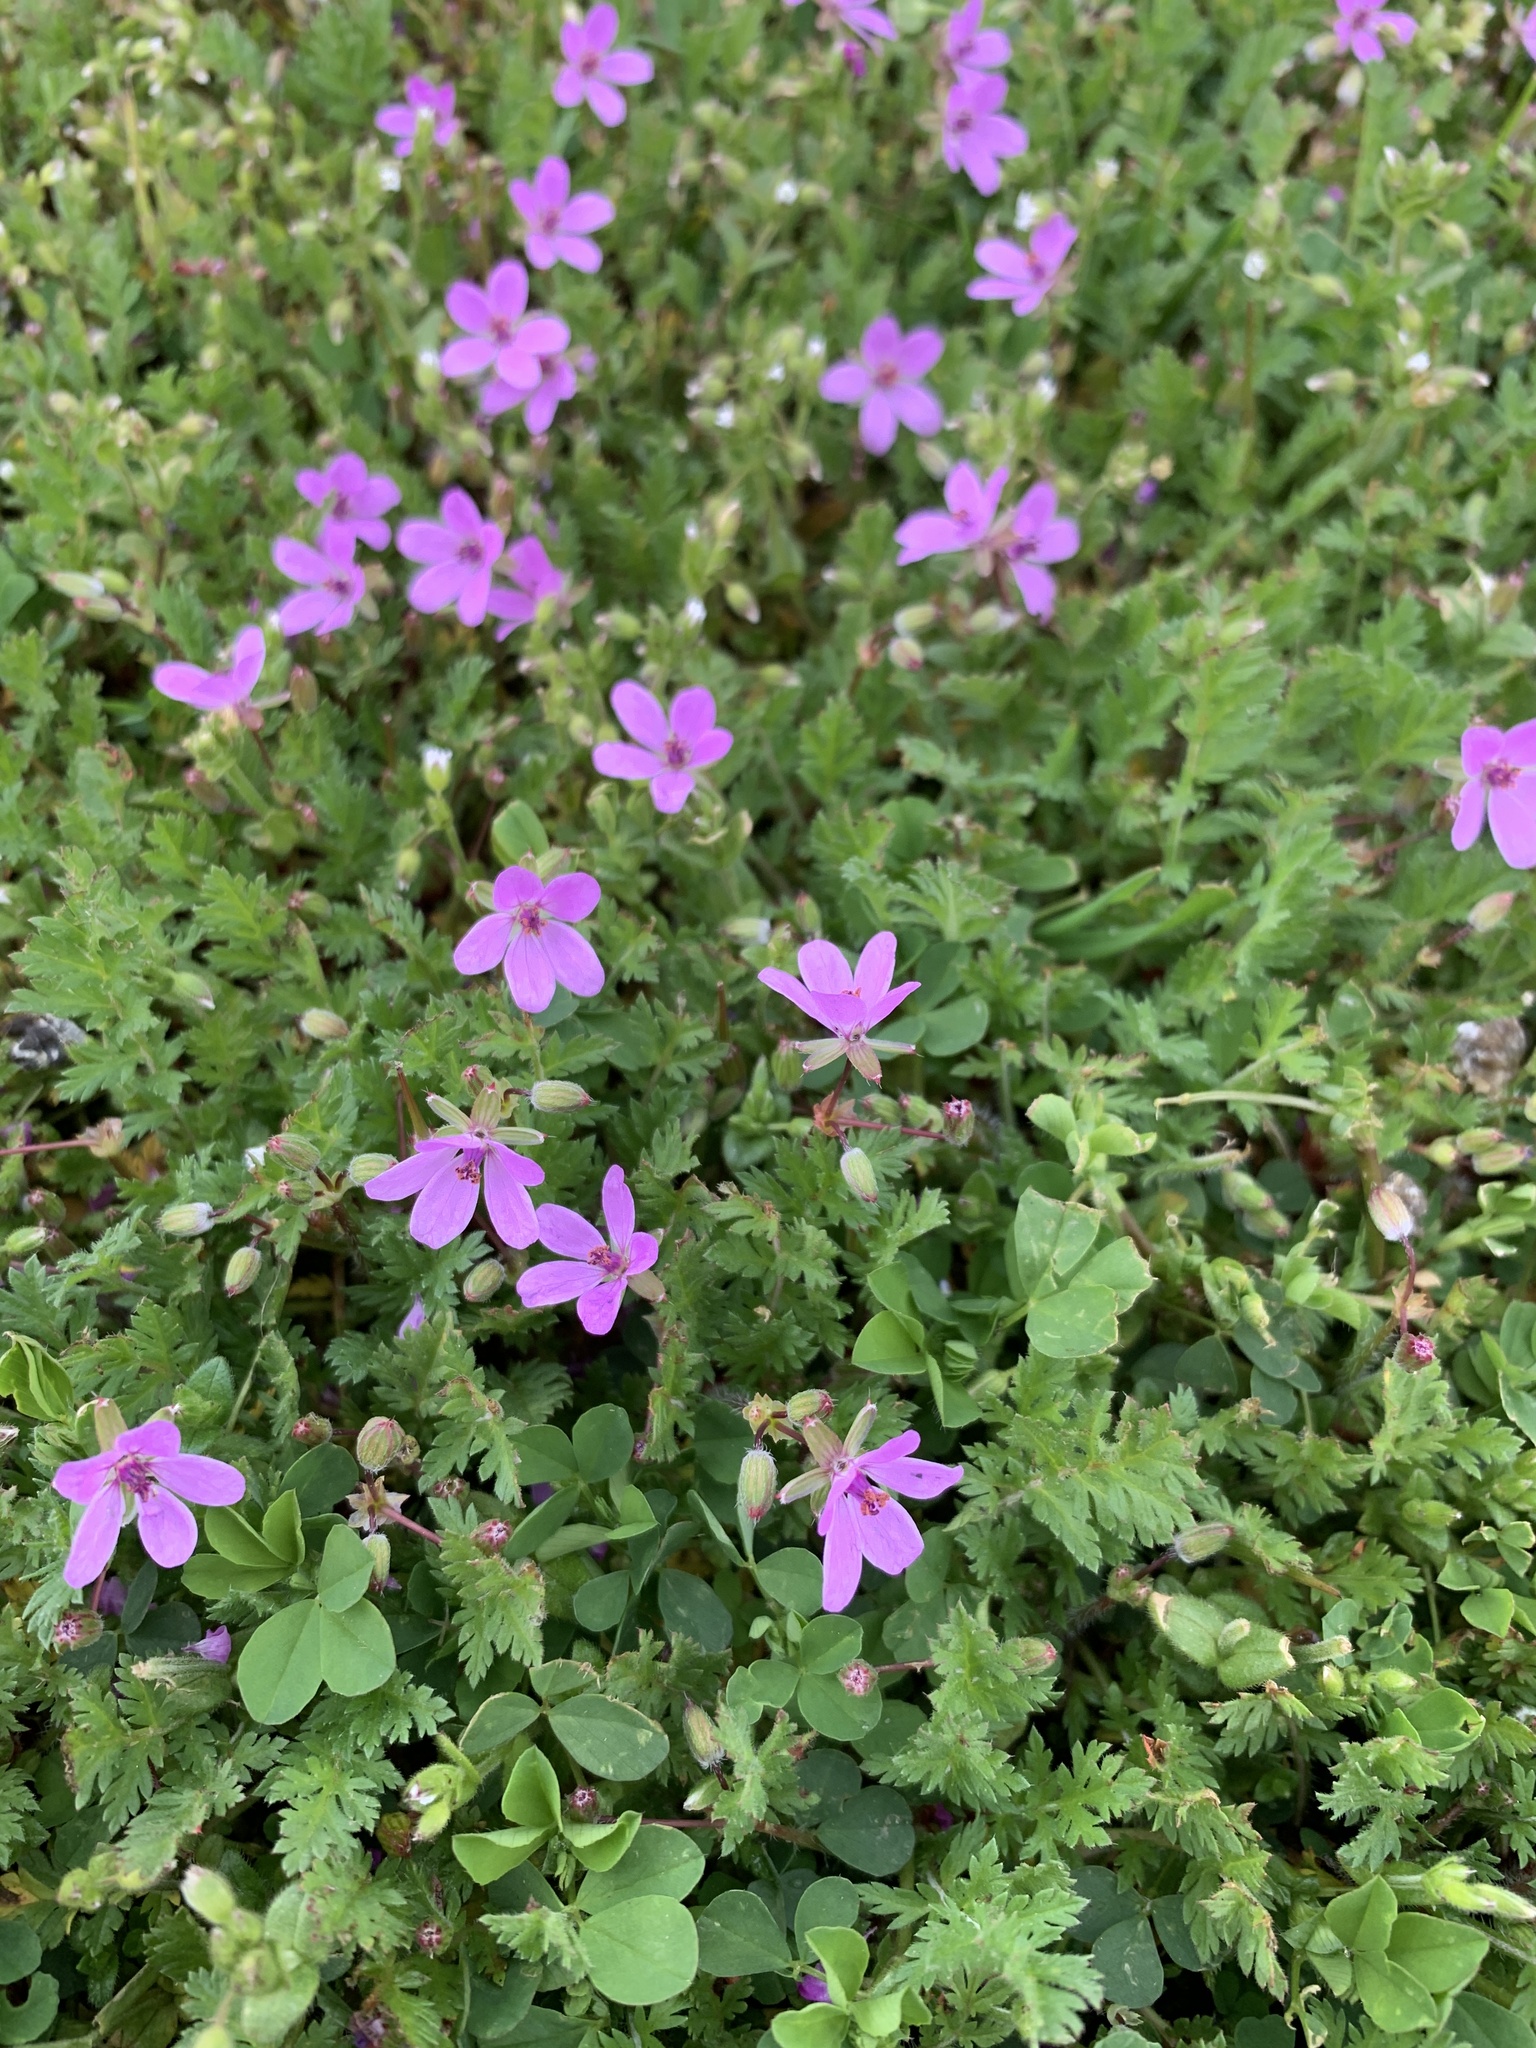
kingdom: Plantae
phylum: Tracheophyta
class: Magnoliopsida
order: Geraniales
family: Geraniaceae
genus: Erodium
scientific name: Erodium cicutarium
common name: Common stork's-bill
